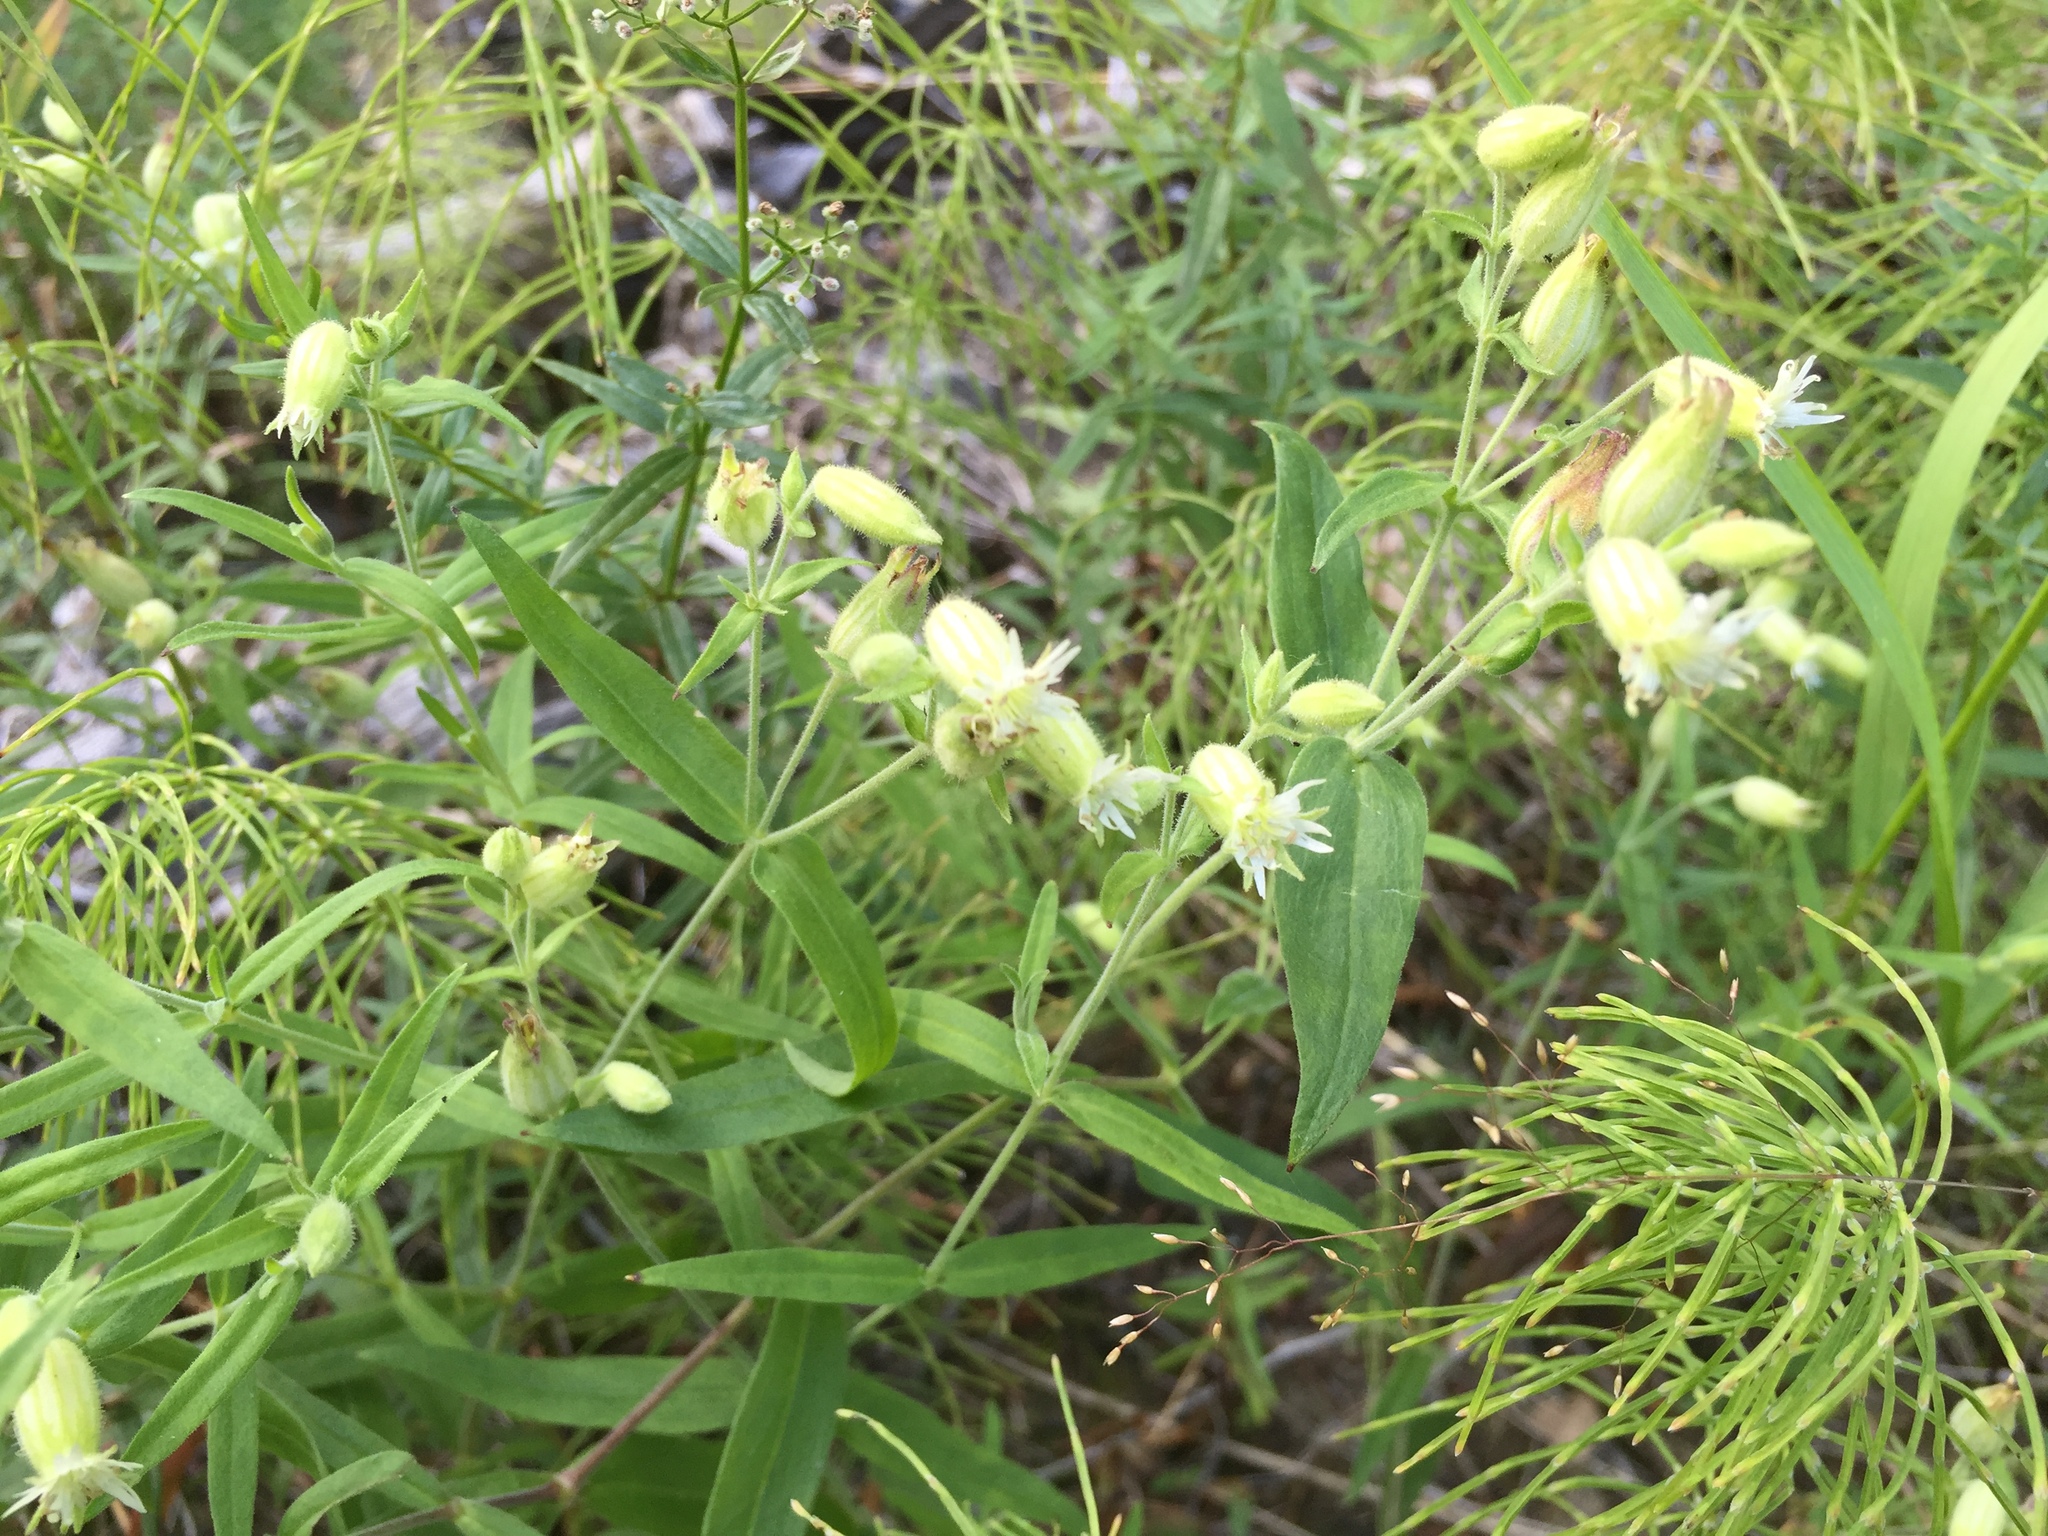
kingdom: Plantae
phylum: Tracheophyta
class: Magnoliopsida
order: Caryophyllales
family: Caryophyllaceae
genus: Silene
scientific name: Silene williamsii
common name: Williams' campion
